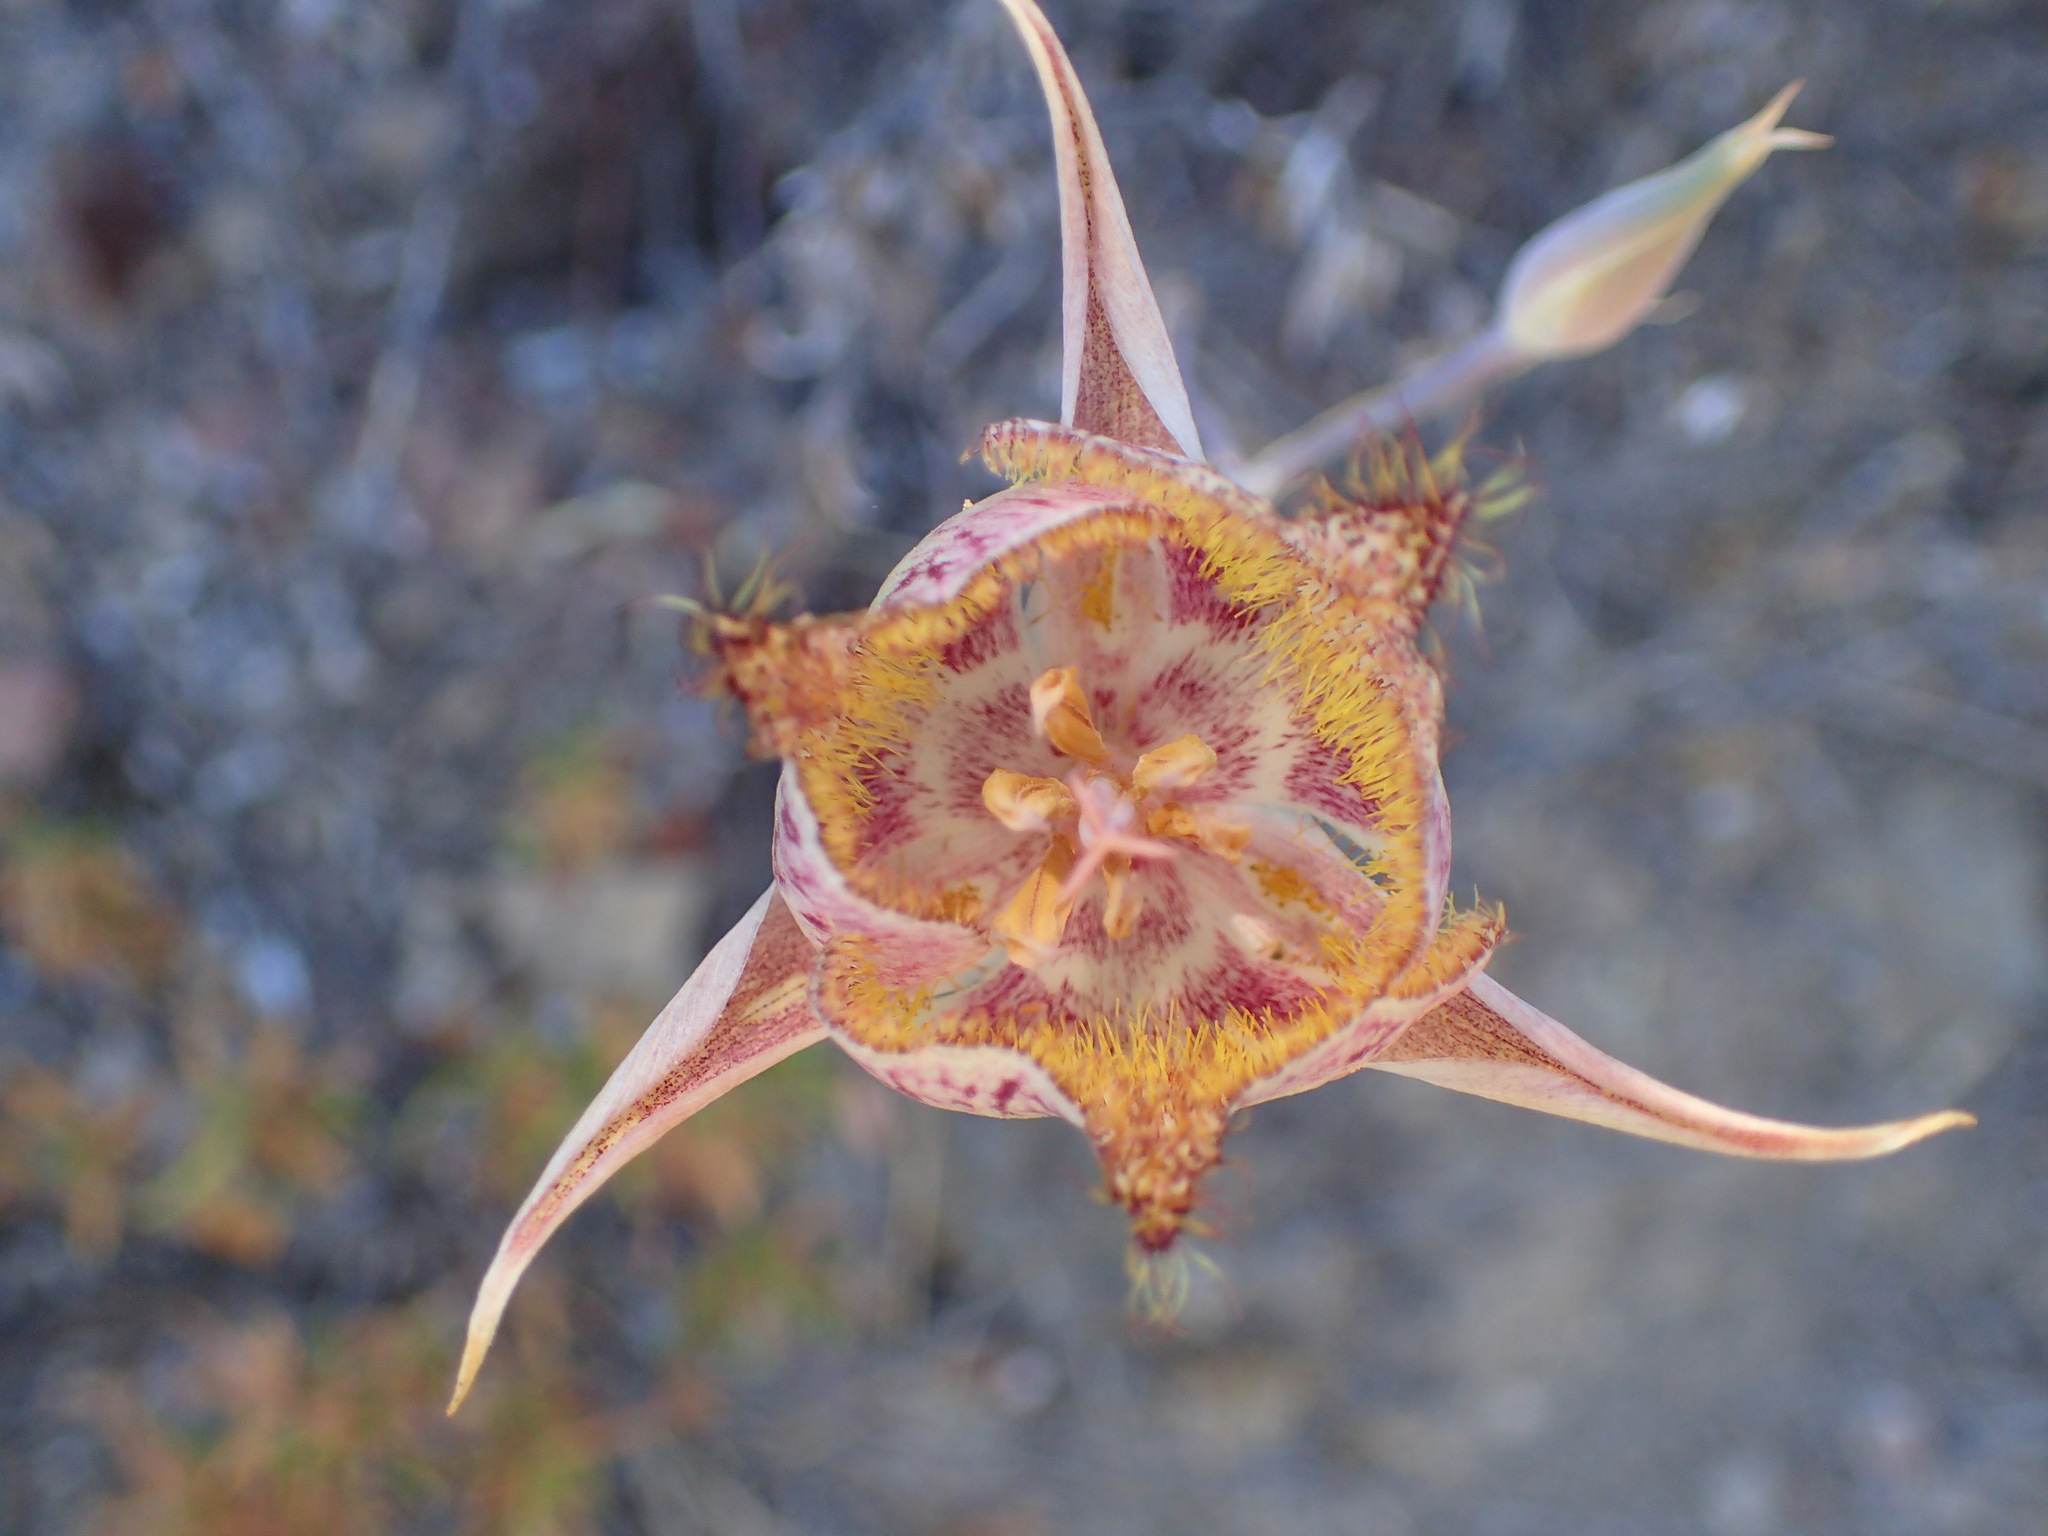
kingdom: Plantae
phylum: Tracheophyta
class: Liliopsida
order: Liliales
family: Liliaceae
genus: Calochortus
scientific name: Calochortus fimbriatus
